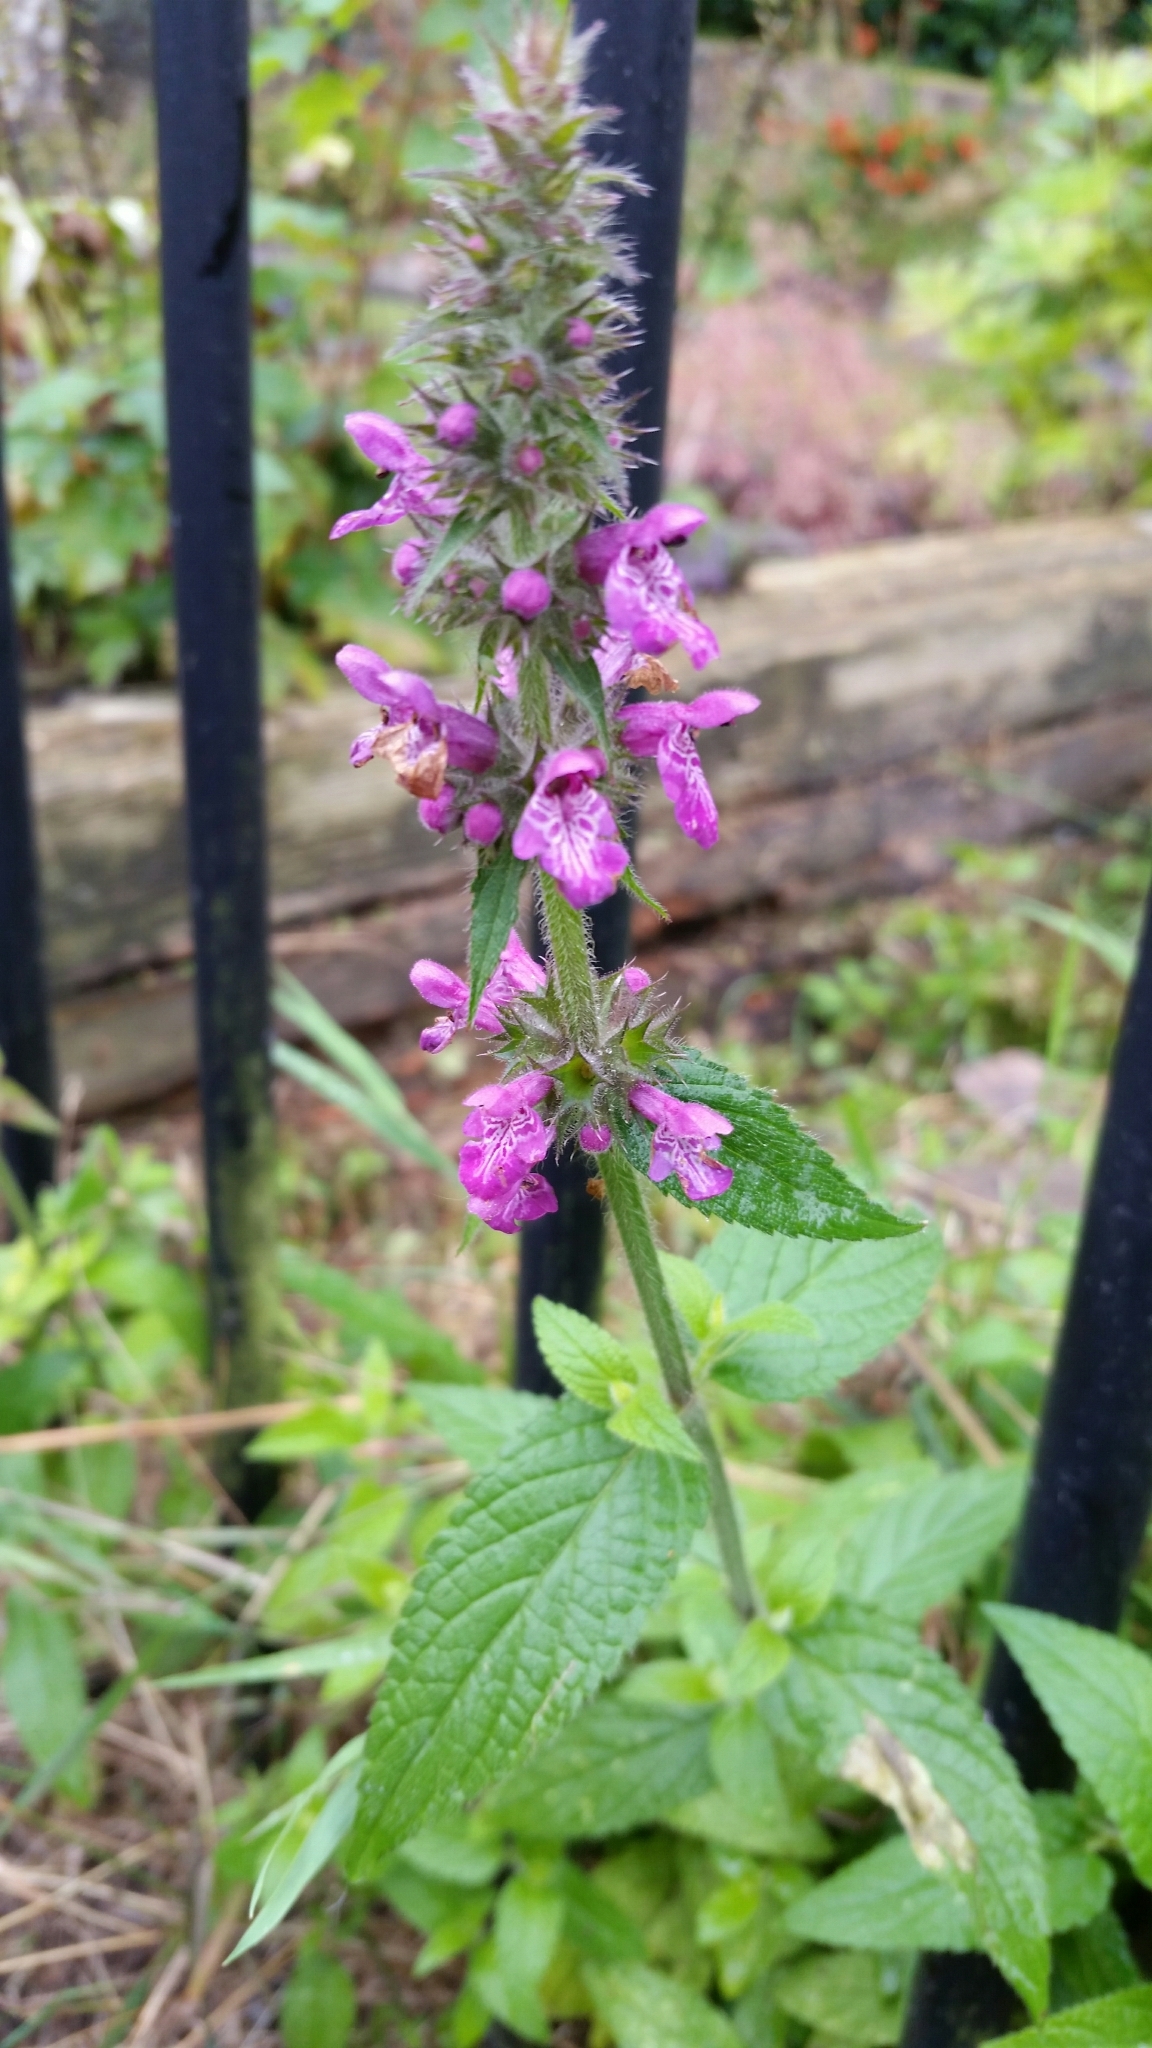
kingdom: Plantae
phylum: Tracheophyta
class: Magnoliopsida
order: Lamiales
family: Lamiaceae
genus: Stachys
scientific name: Stachys palustris
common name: Marsh woundwort
